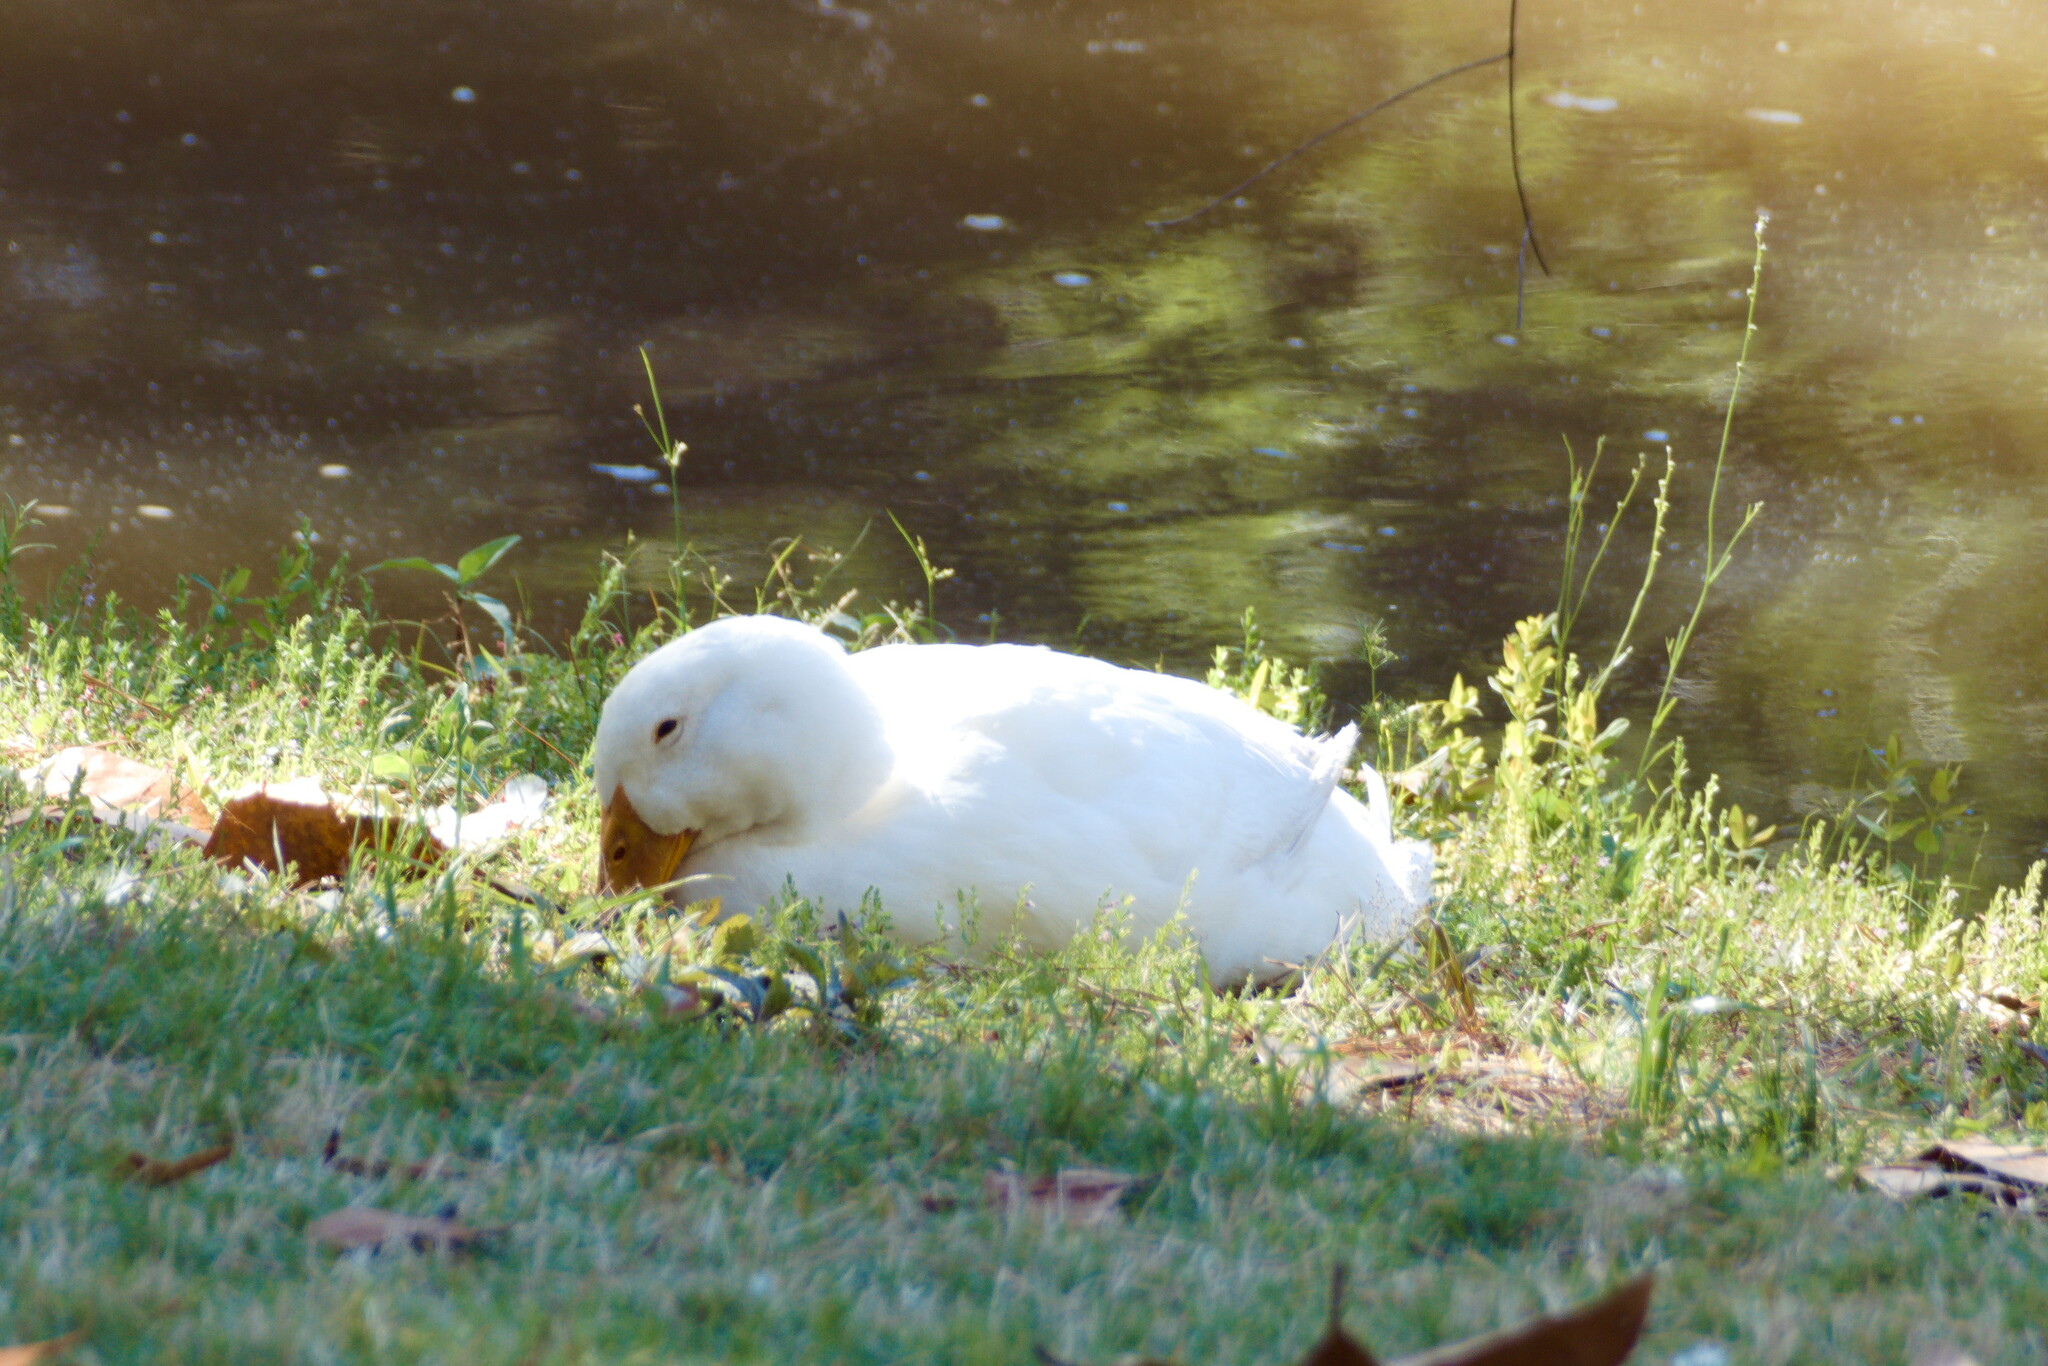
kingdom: Animalia
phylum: Chordata
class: Aves
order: Anseriformes
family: Anatidae
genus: Anas
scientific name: Anas platyrhynchos
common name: Mallard
